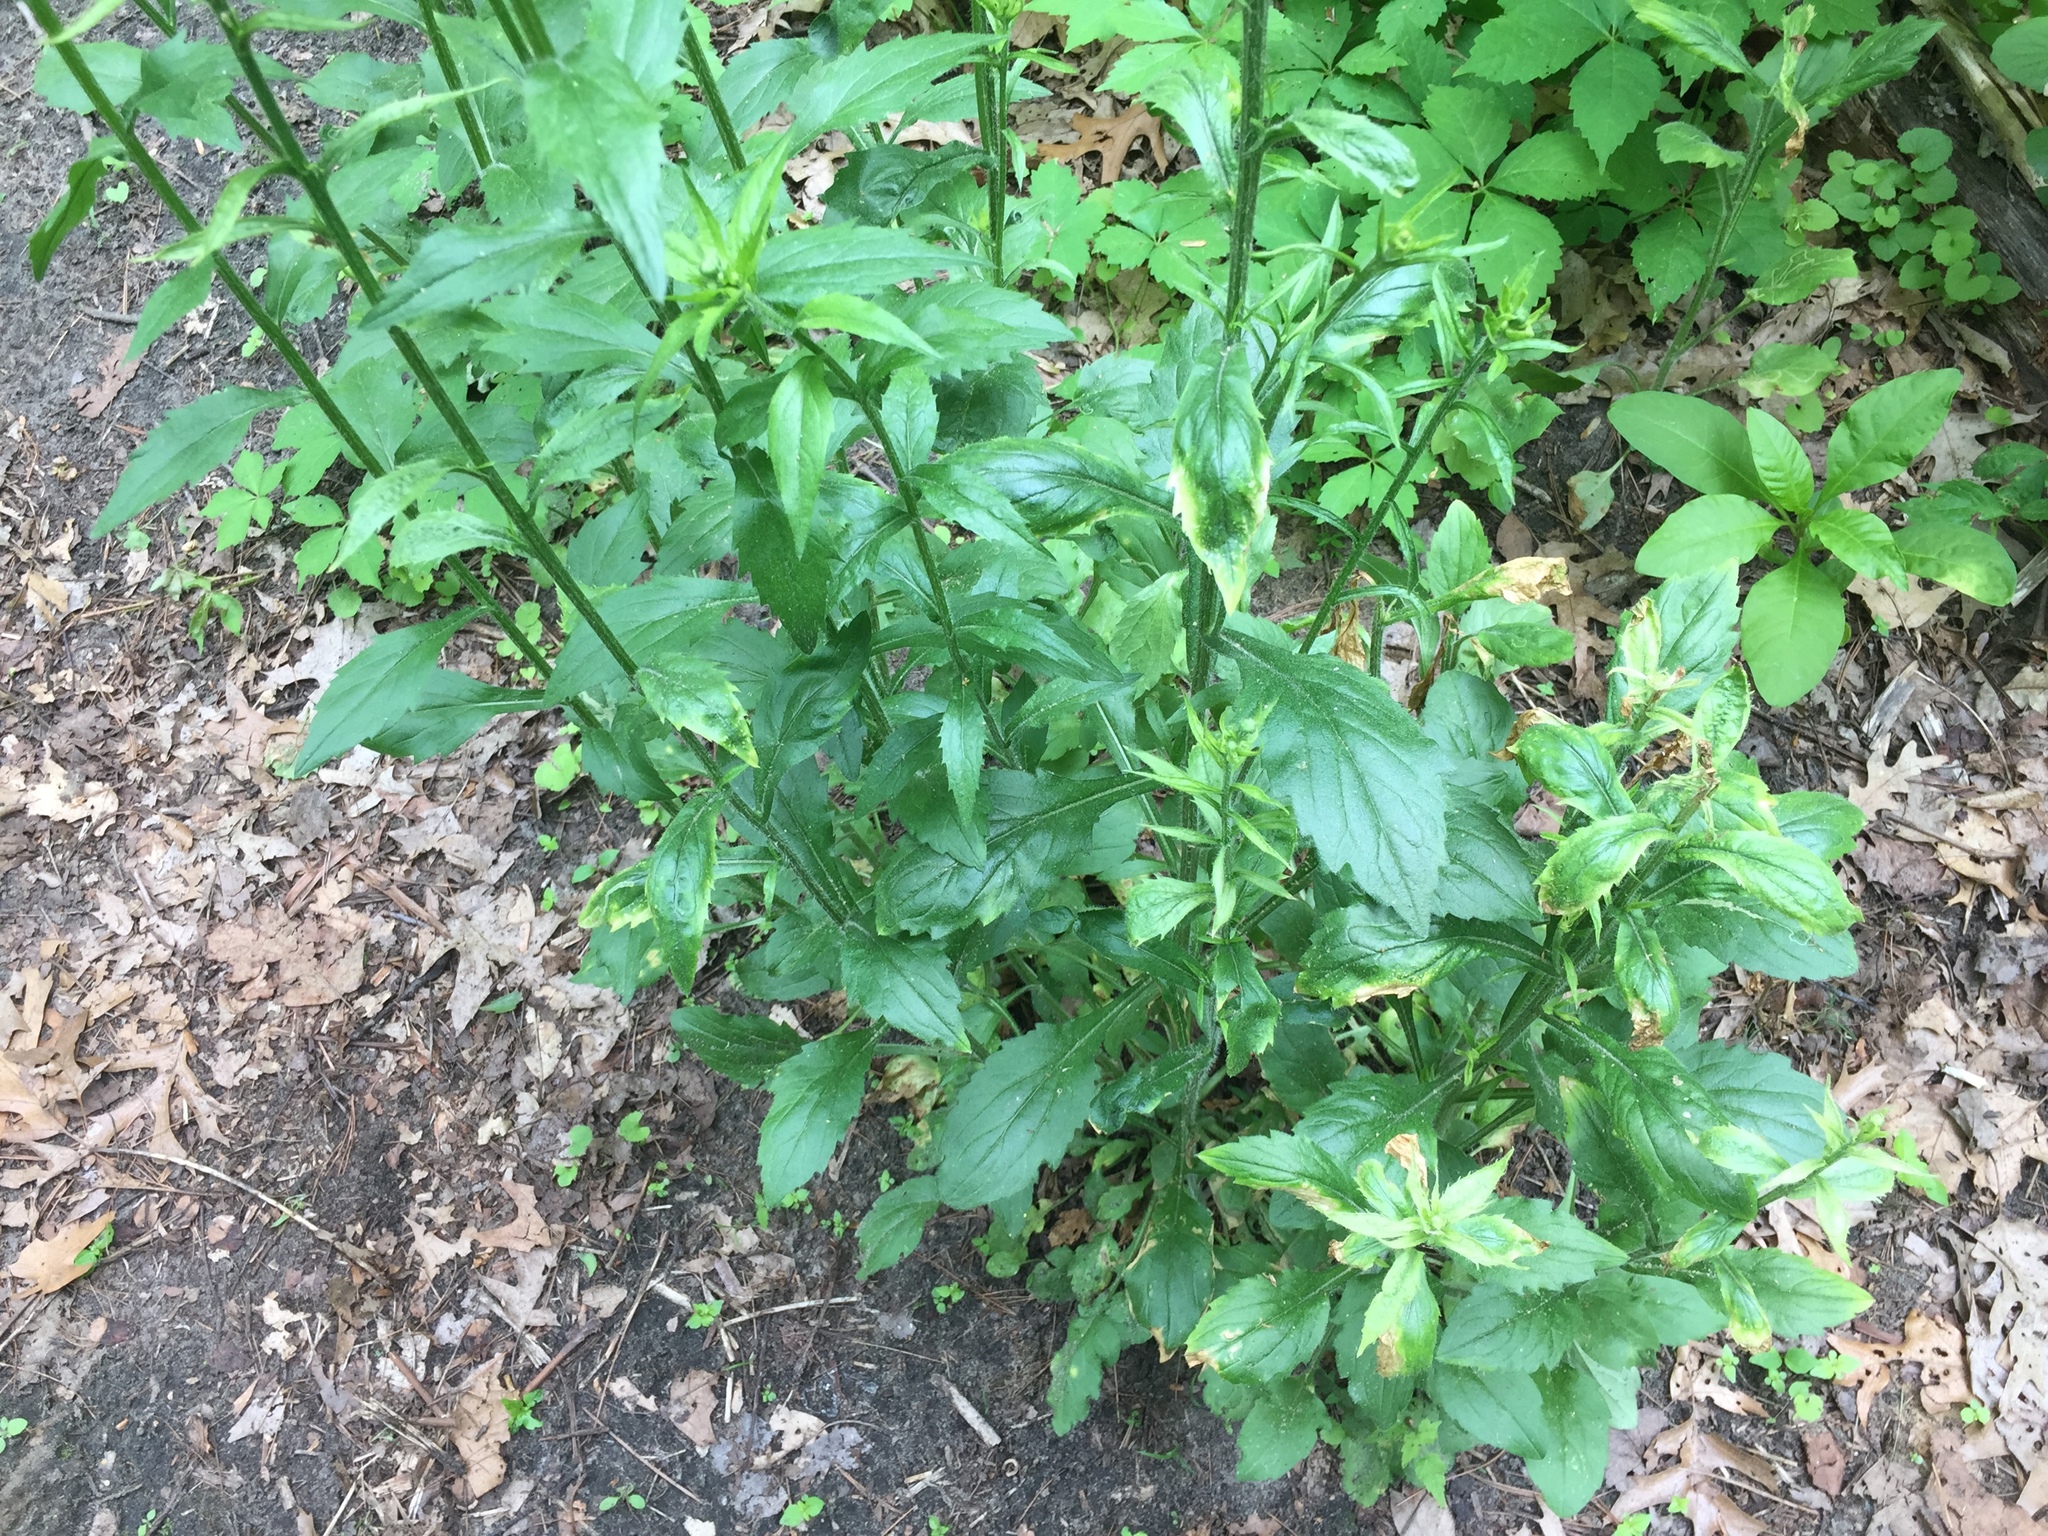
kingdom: Plantae
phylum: Tracheophyta
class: Magnoliopsida
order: Asterales
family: Asteraceae
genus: Erigeron
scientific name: Erigeron annuus
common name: Tall fleabane
